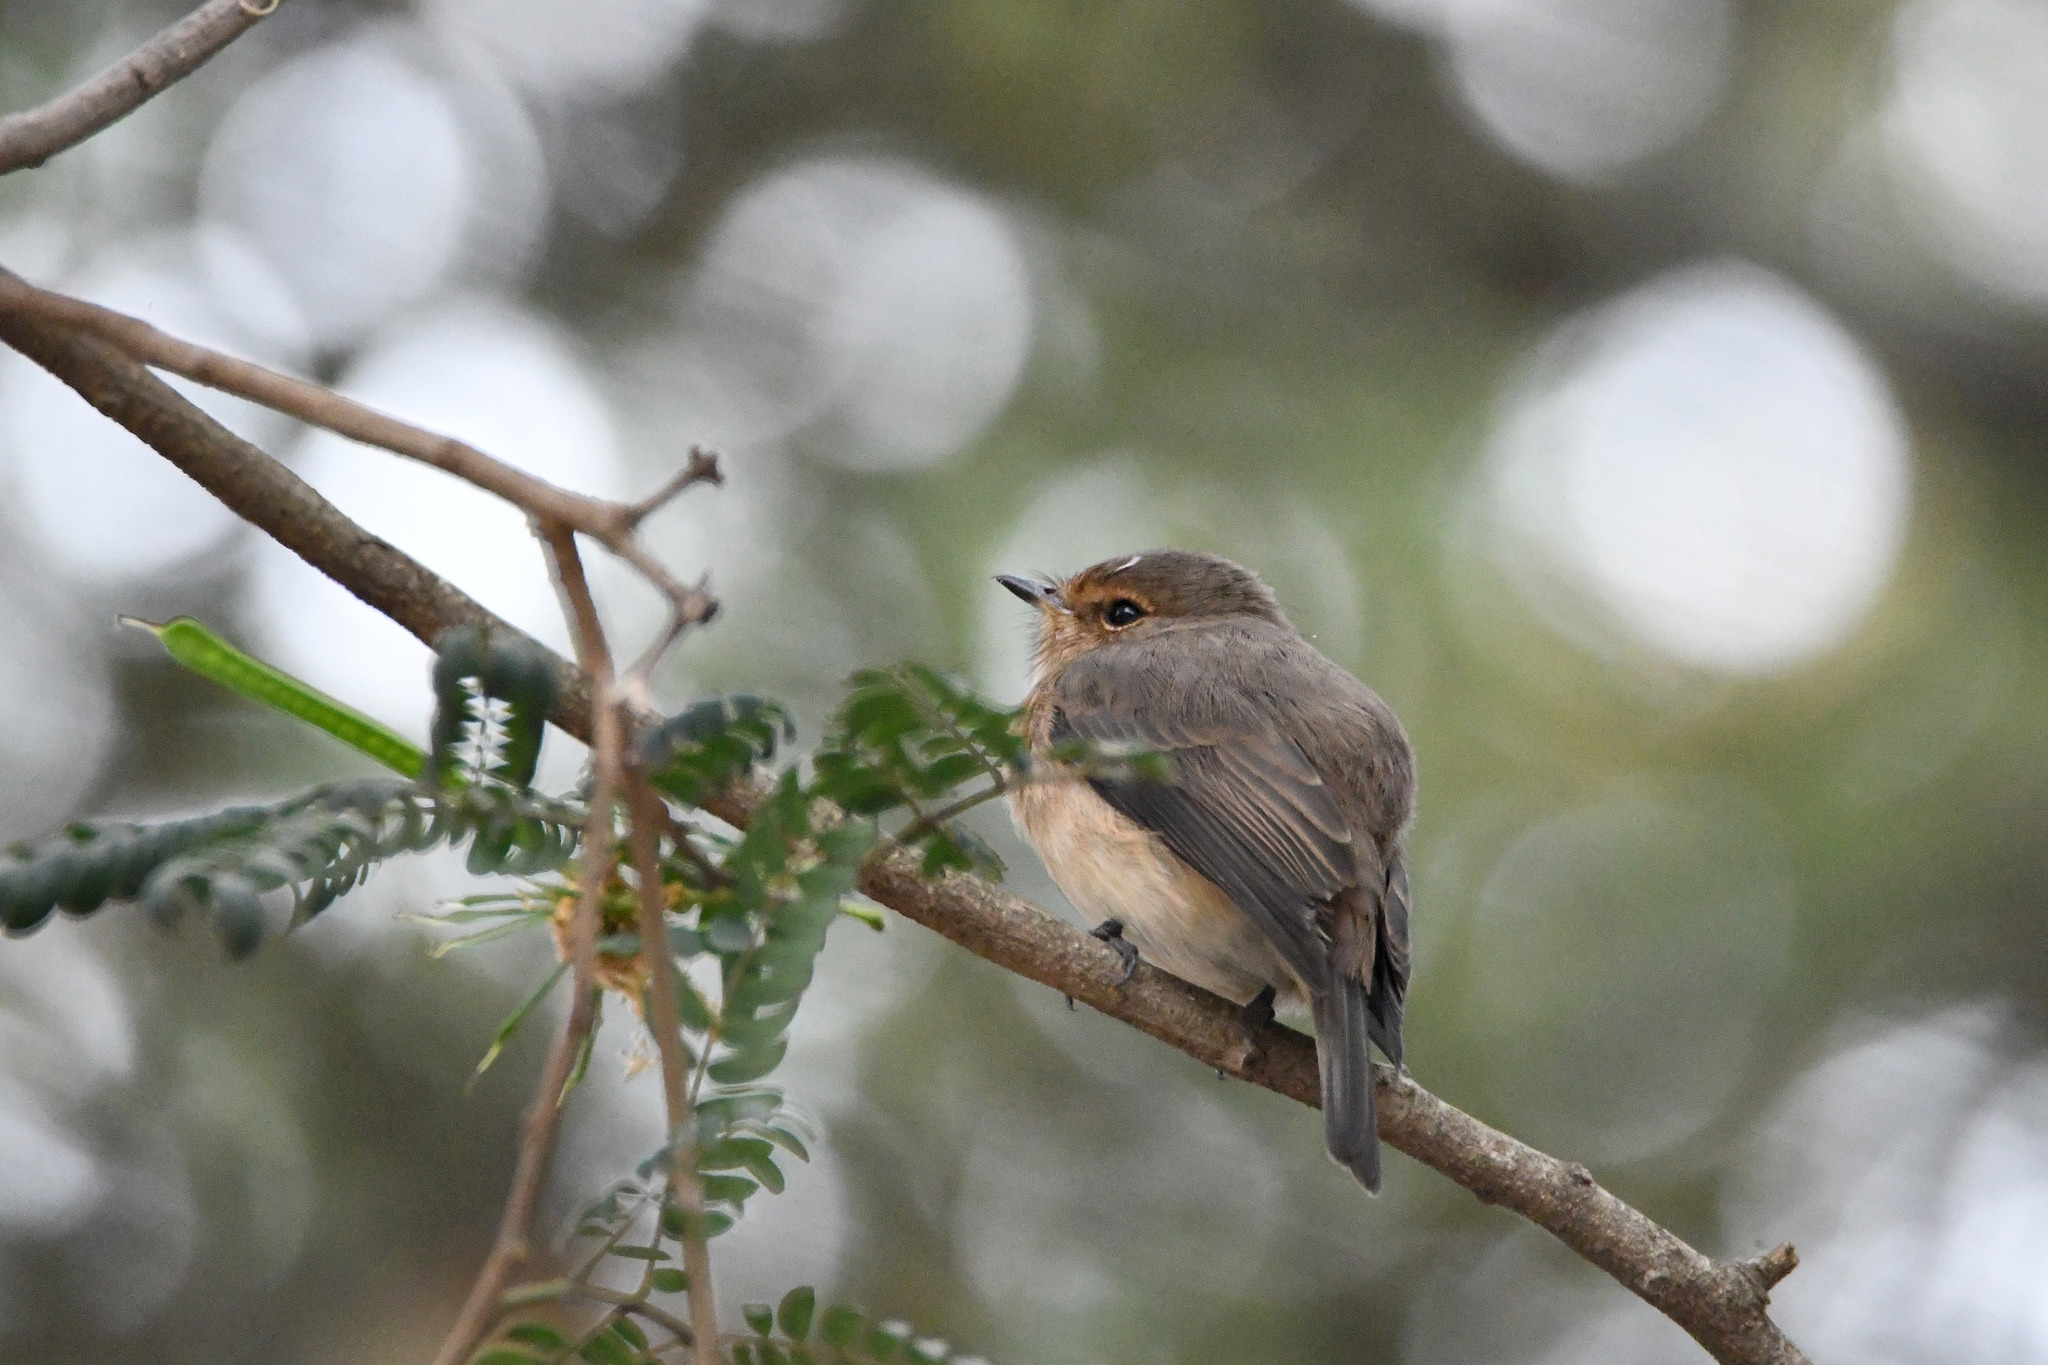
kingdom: Animalia
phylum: Chordata
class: Aves
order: Passeriformes
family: Muscicapidae
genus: Muscicapa
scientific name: Muscicapa adusta
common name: African dusky flycatcher
